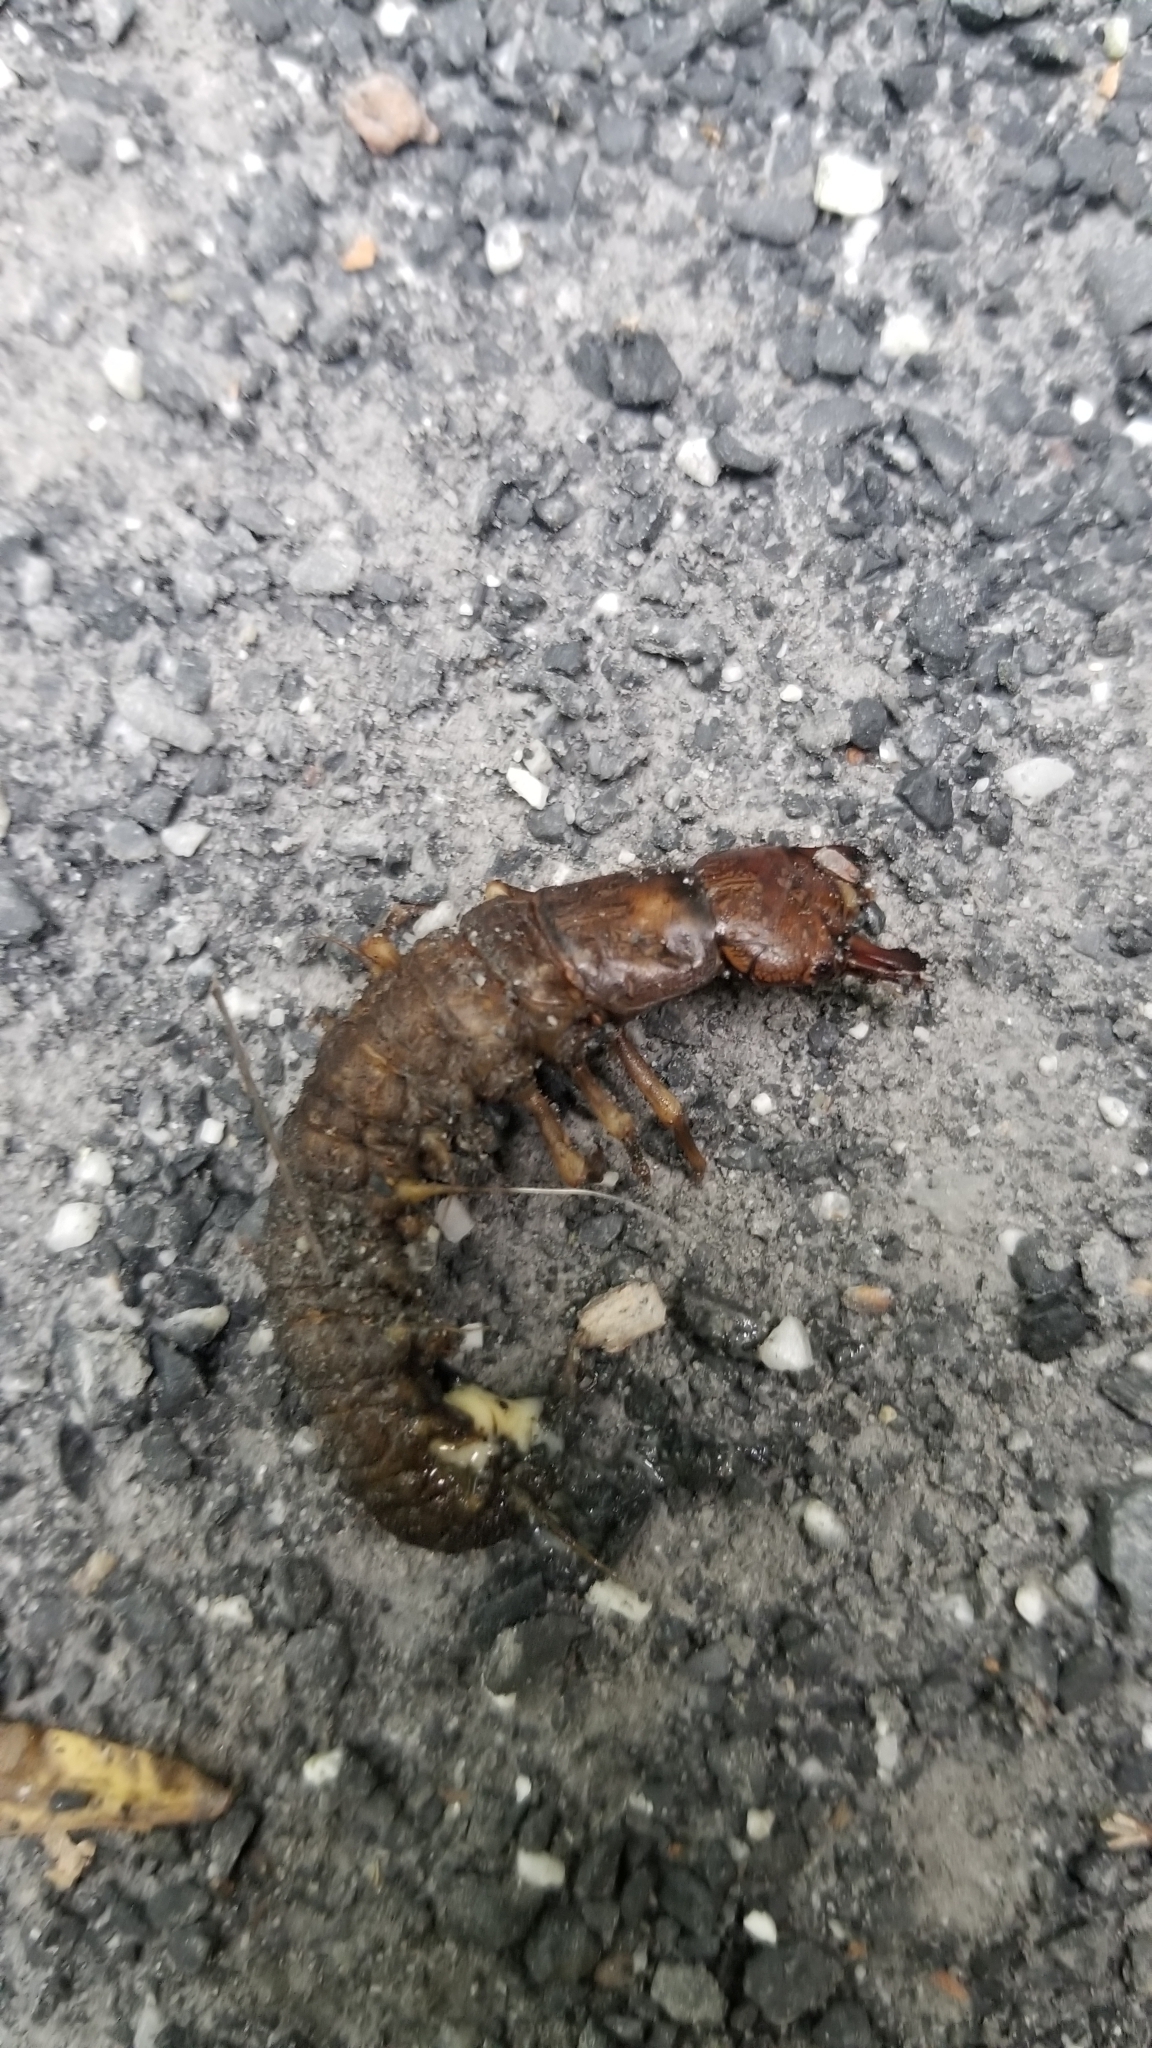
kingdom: Animalia
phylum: Arthropoda
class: Insecta
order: Megaloptera
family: Corydalidae
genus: Corydalus
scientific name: Corydalus cornutus
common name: Dobsonfly
